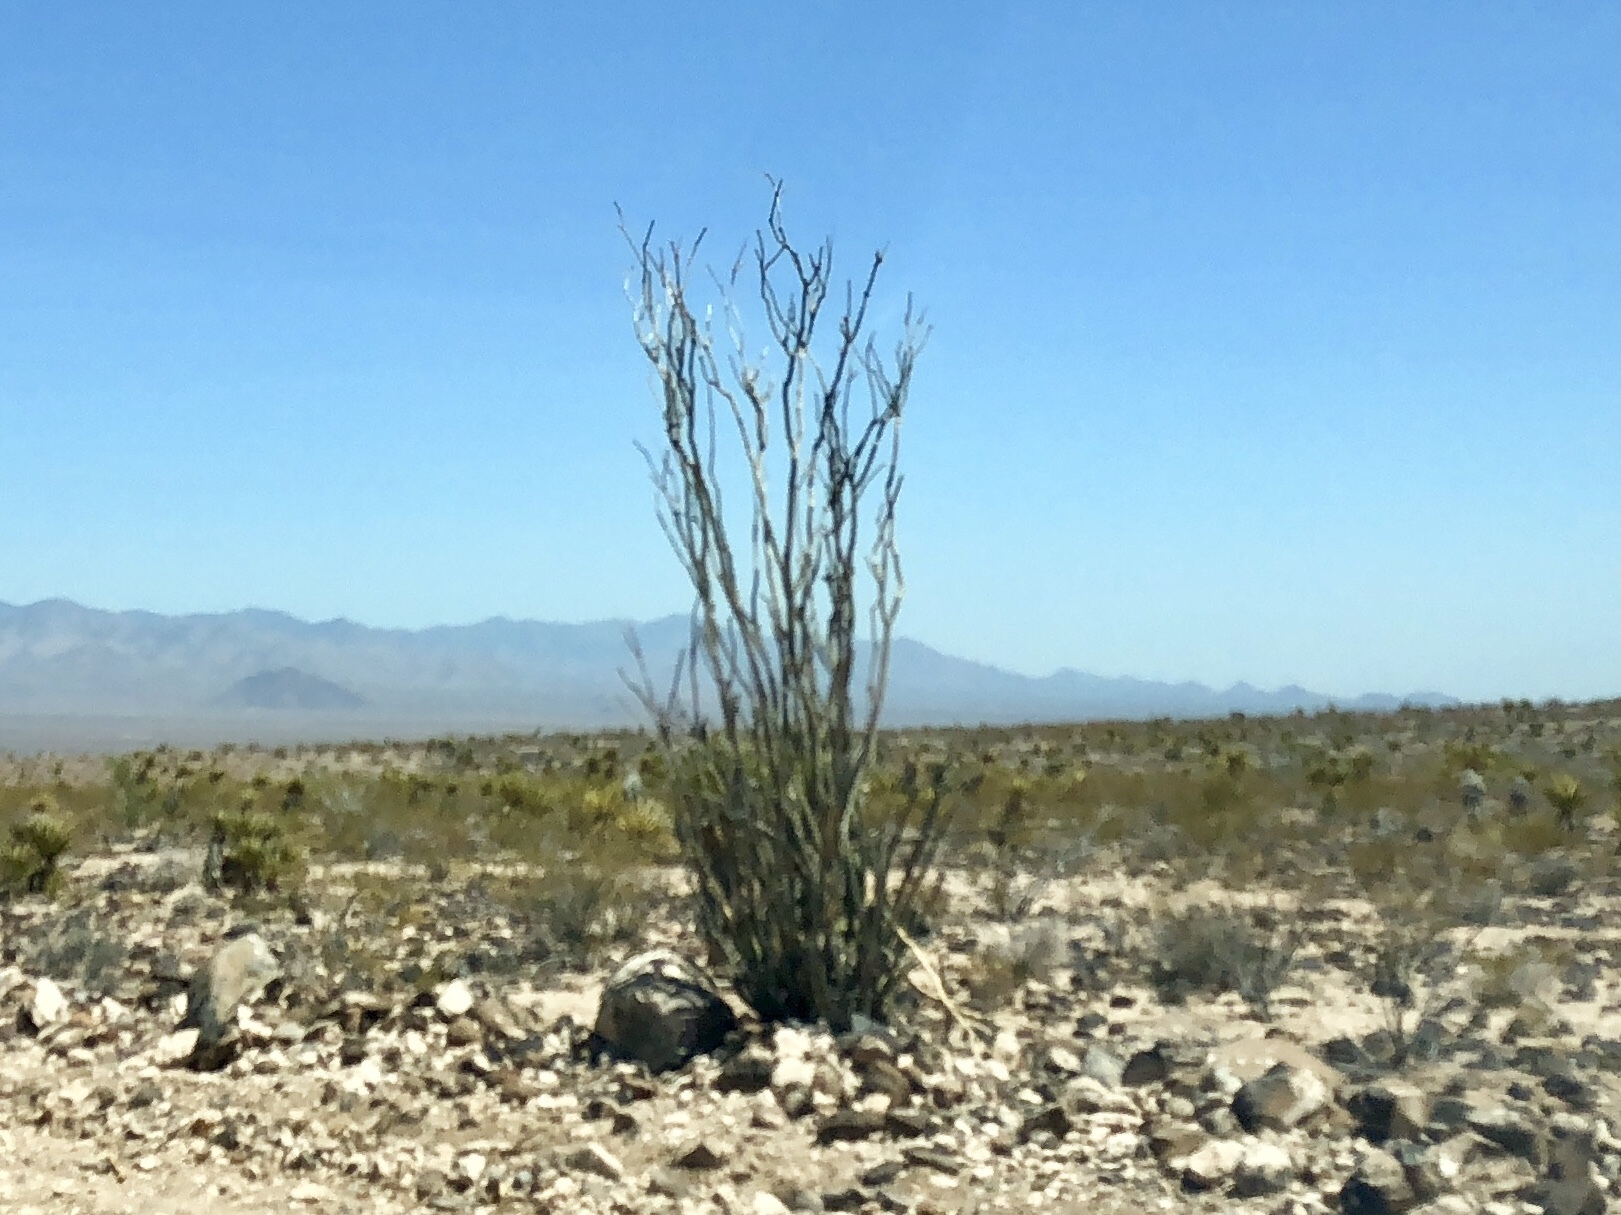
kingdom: Plantae
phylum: Tracheophyta
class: Magnoliopsida
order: Ericales
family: Fouquieriaceae
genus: Fouquieria
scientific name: Fouquieria splendens
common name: Vine-cactus
